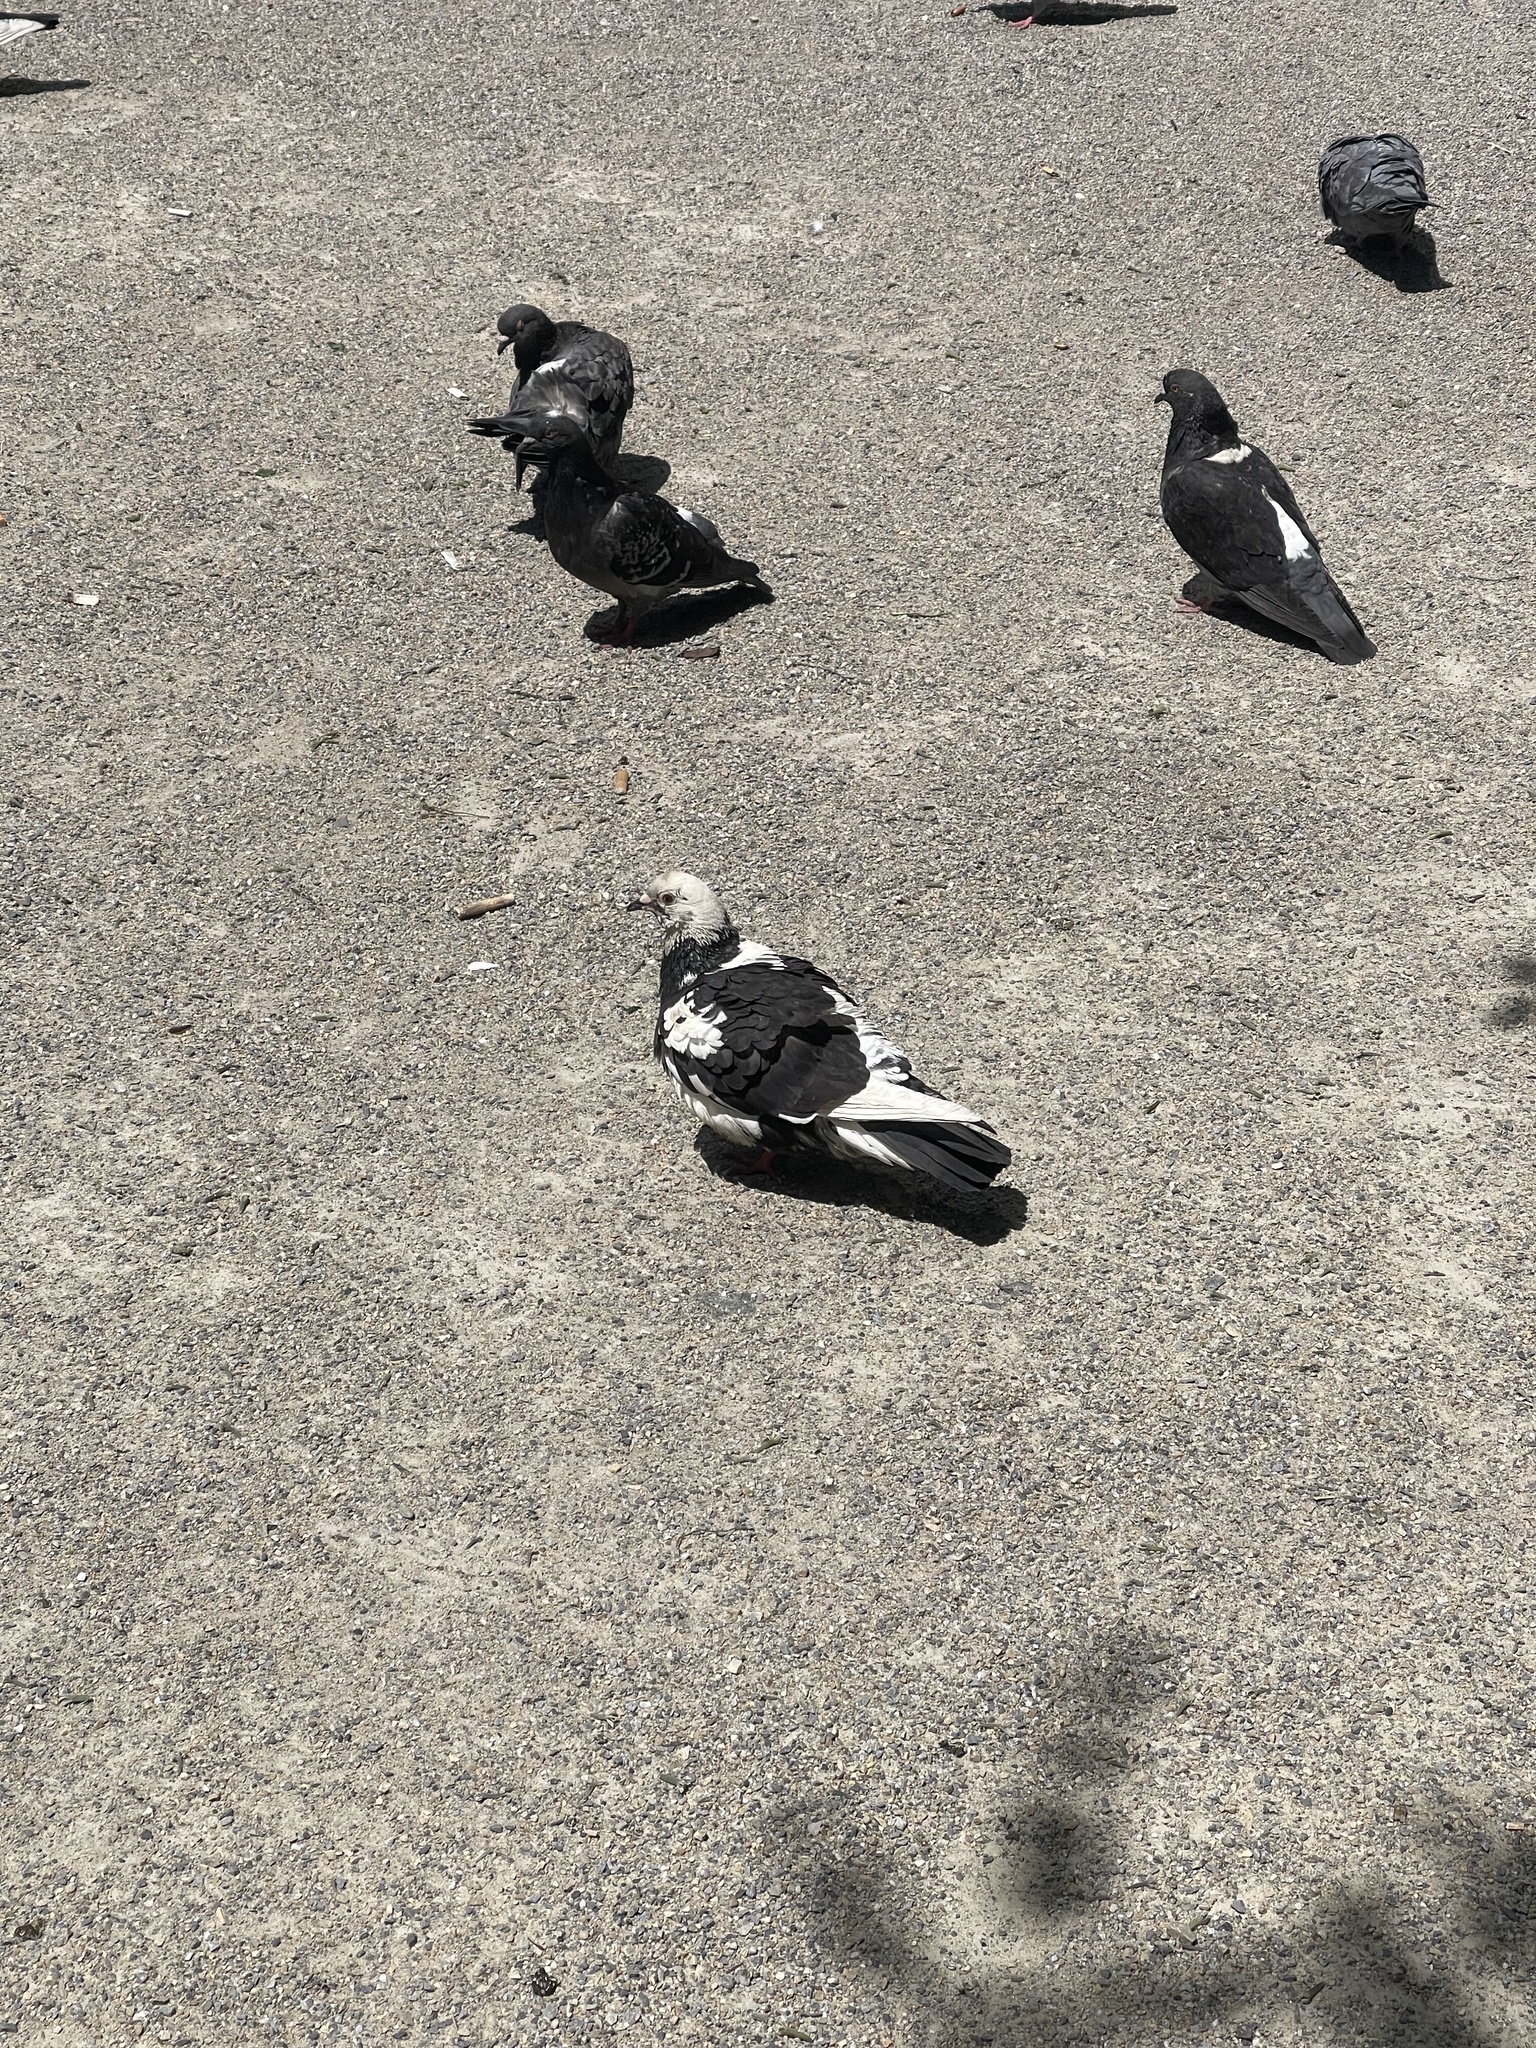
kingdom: Animalia
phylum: Chordata
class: Aves
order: Columbiformes
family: Columbidae
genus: Columba
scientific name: Columba livia
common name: Rock pigeon
